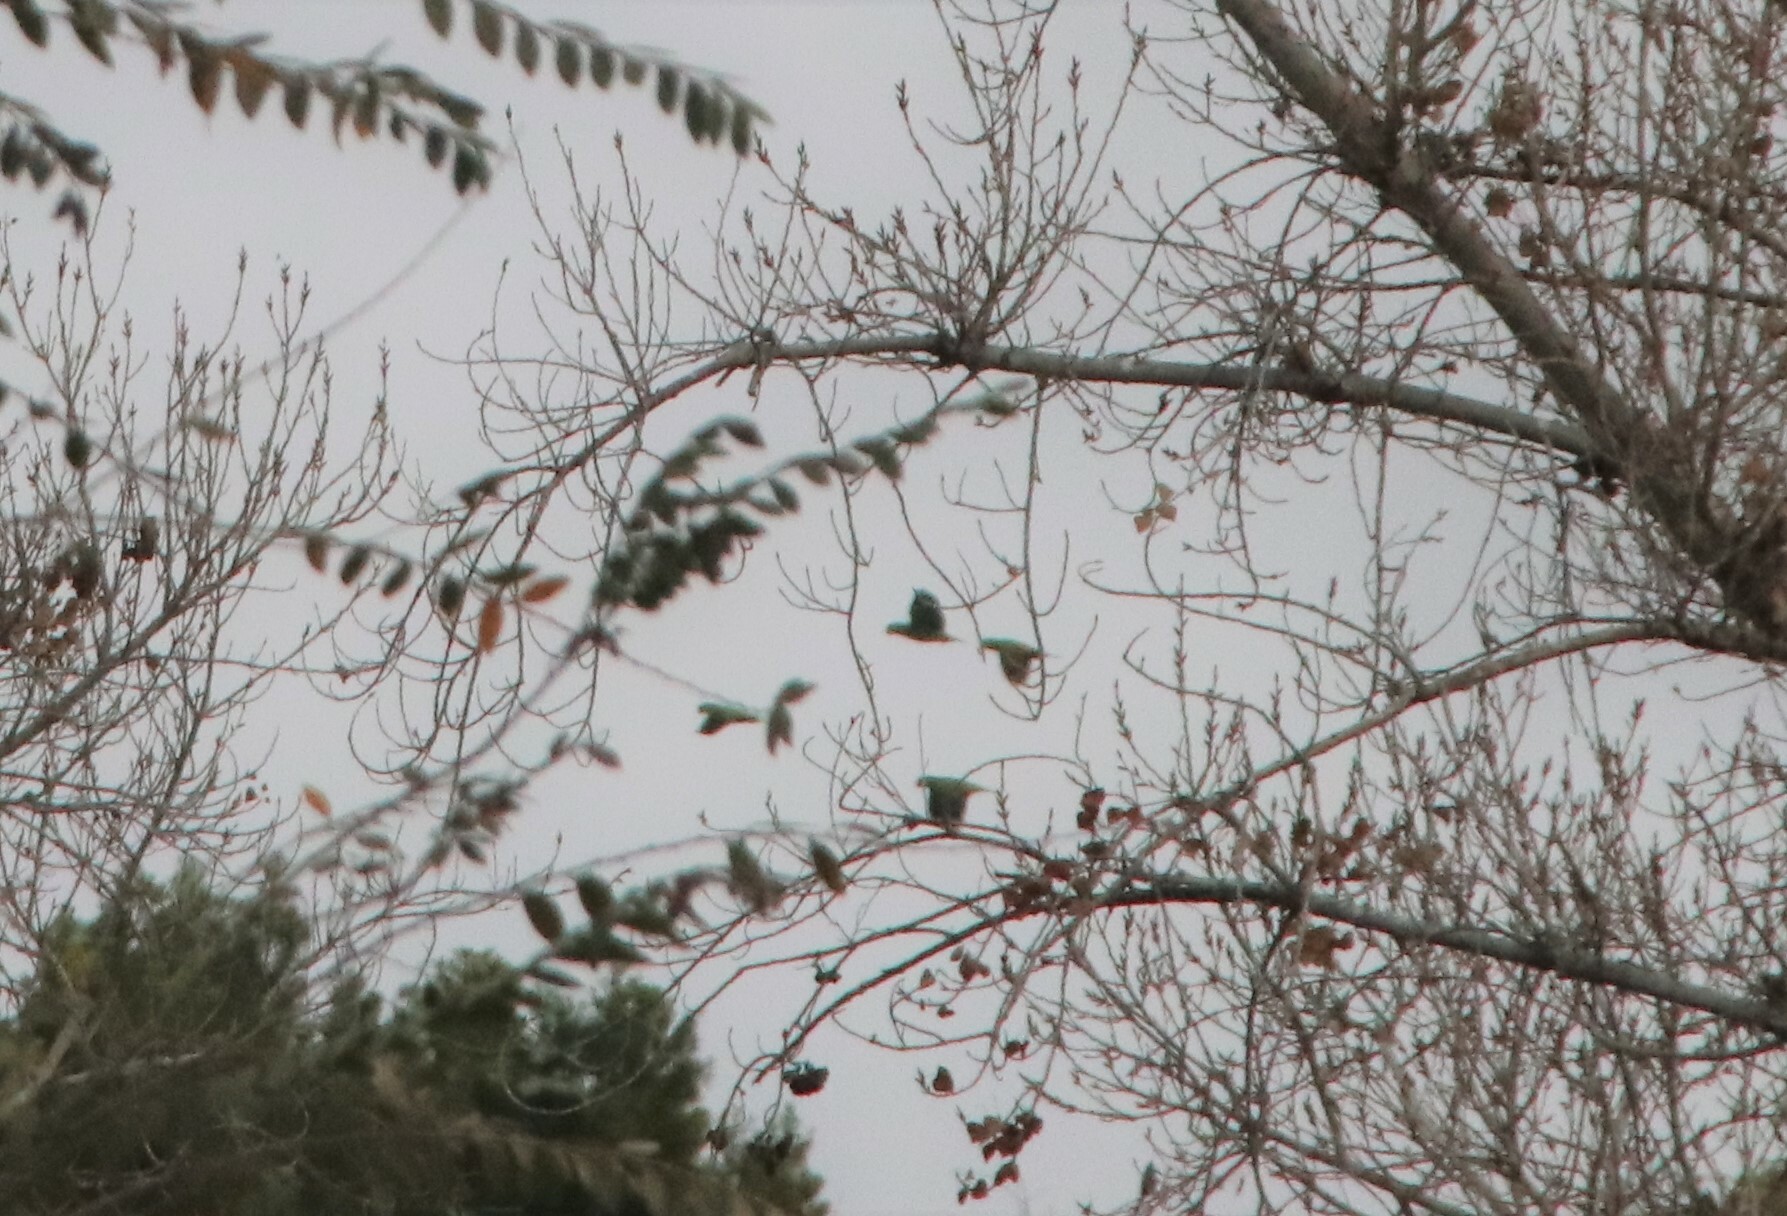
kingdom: Animalia
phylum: Chordata
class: Aves
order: Psittaciformes
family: Psittacidae
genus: Amazona
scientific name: Amazona
